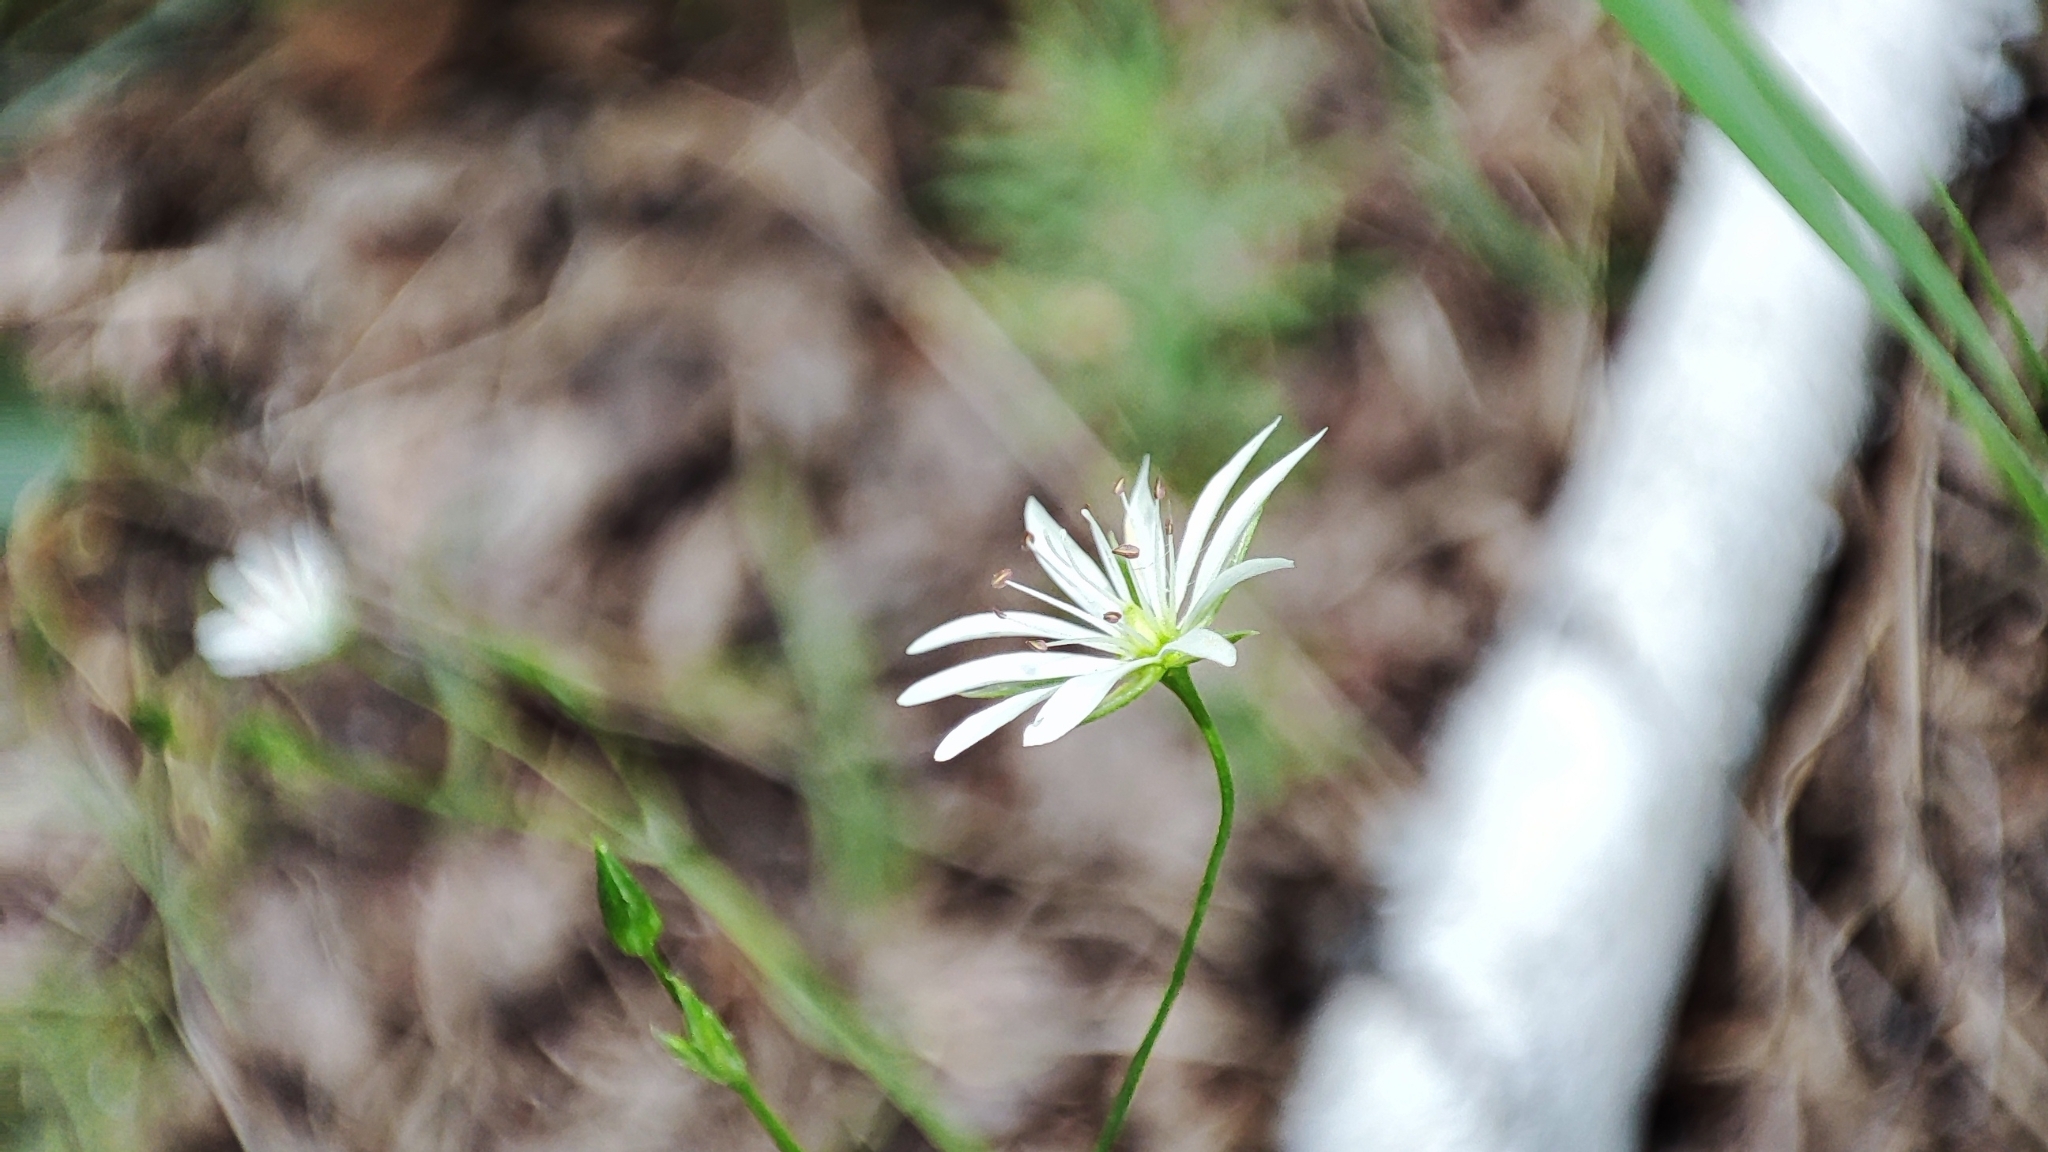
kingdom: Plantae
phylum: Tracheophyta
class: Magnoliopsida
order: Caryophyllales
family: Caryophyllaceae
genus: Stellaria
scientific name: Stellaria graminea
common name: Grass-like starwort
